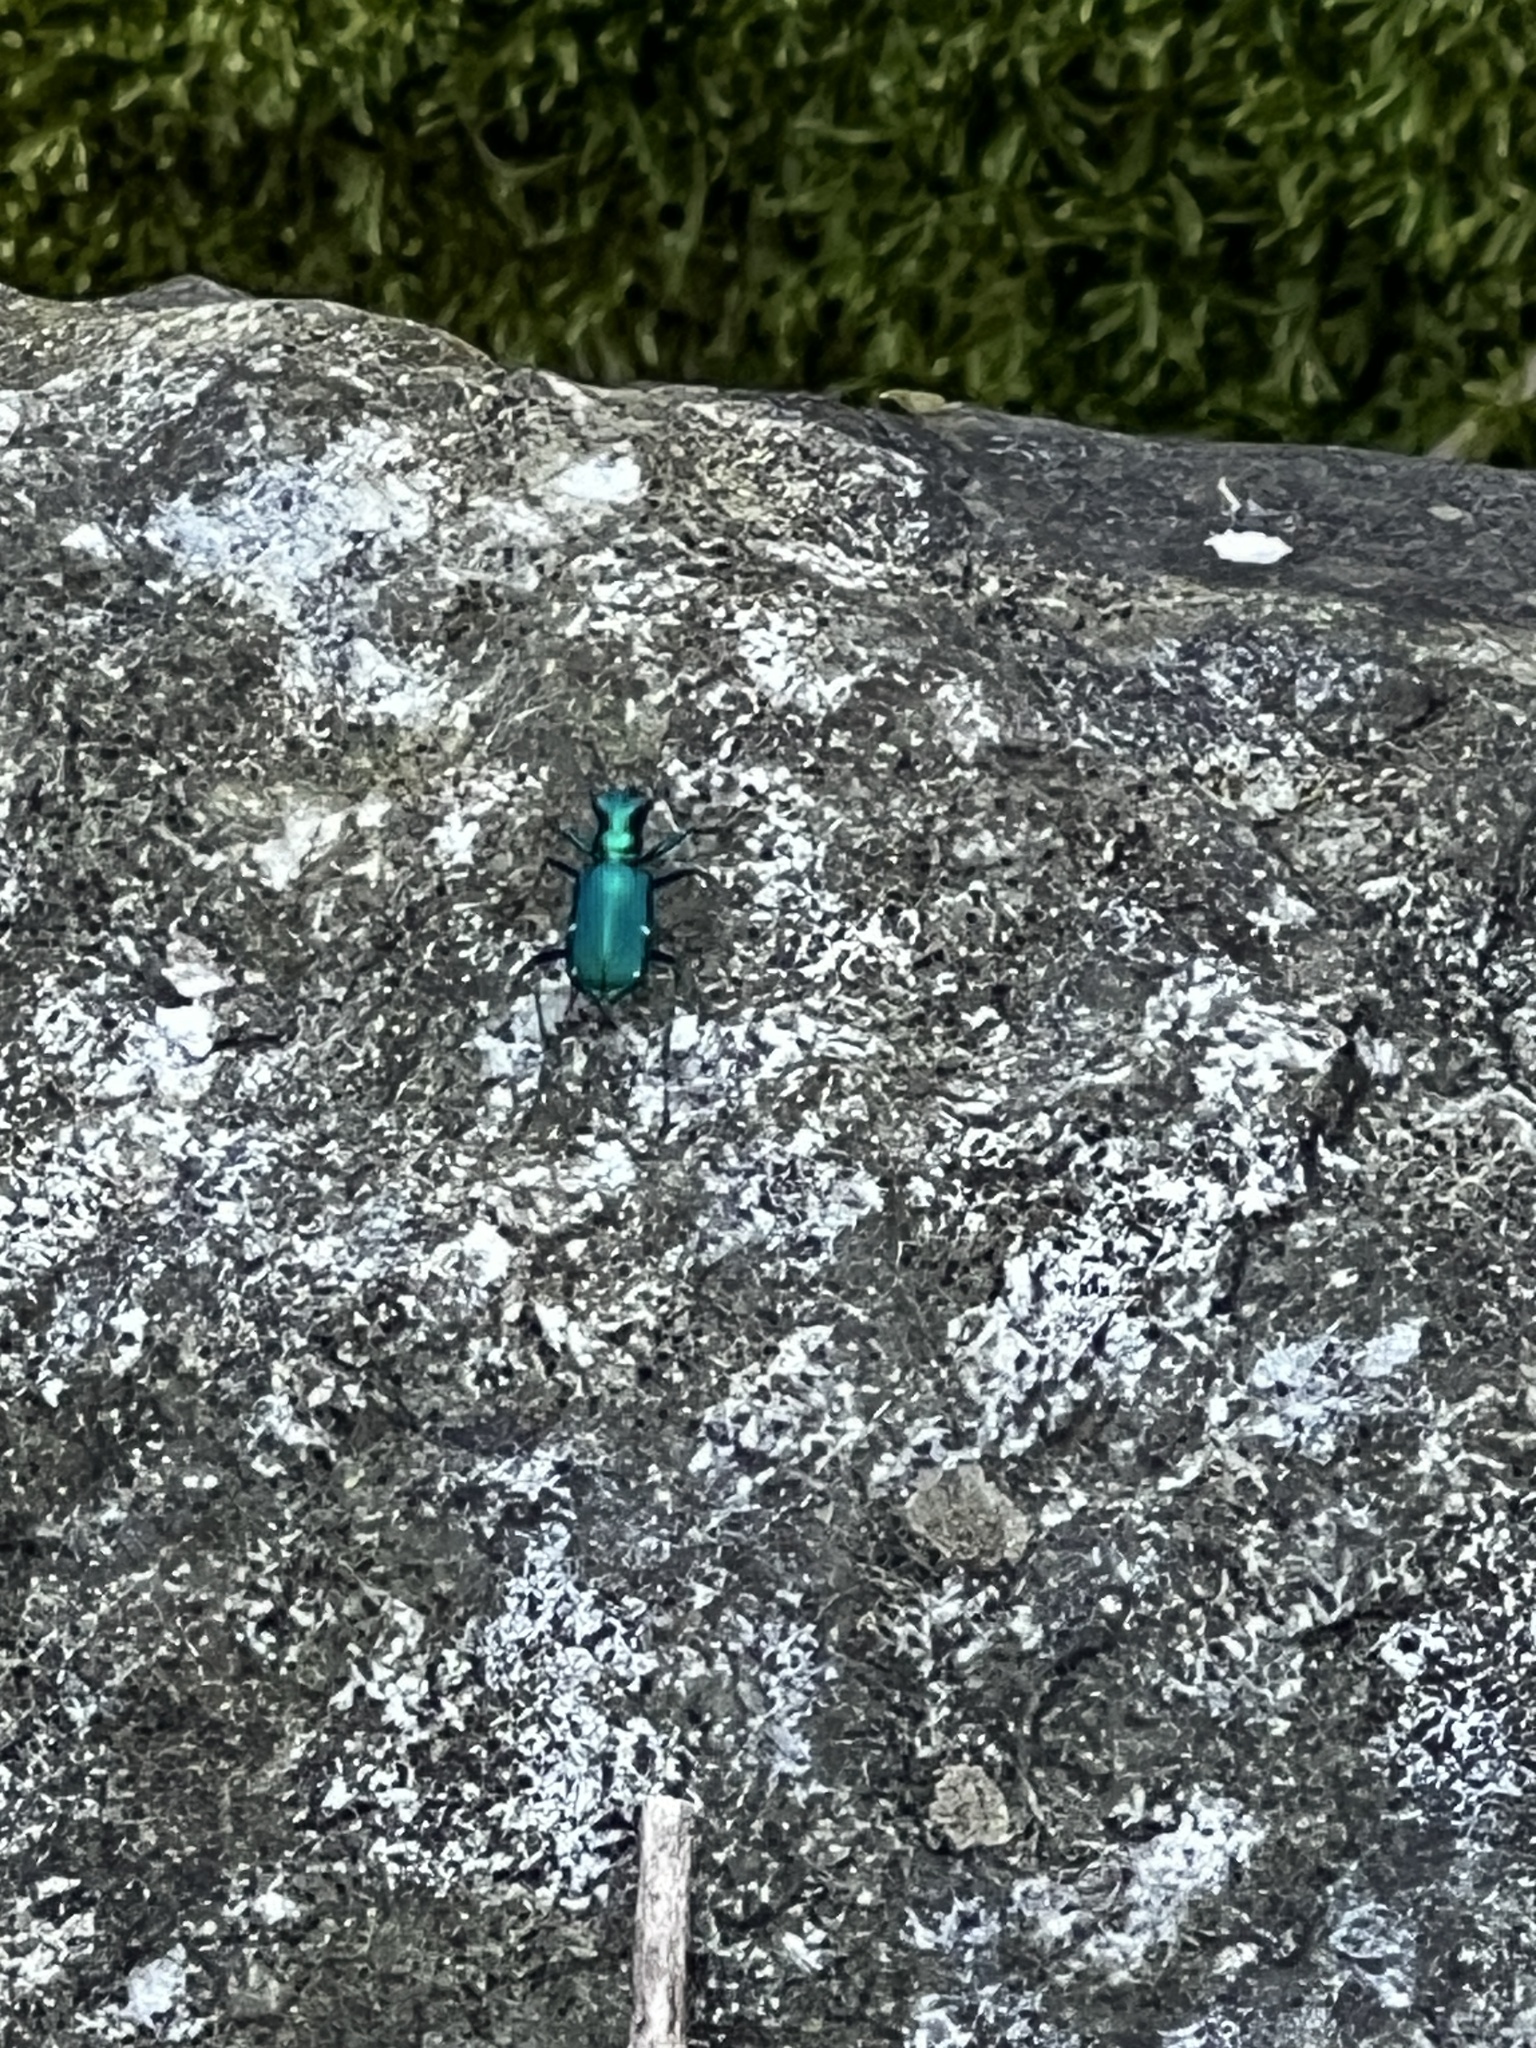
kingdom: Animalia
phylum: Arthropoda
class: Insecta
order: Coleoptera
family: Carabidae
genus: Cicindela
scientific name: Cicindela sexguttata
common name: Six-spotted tiger beetle
